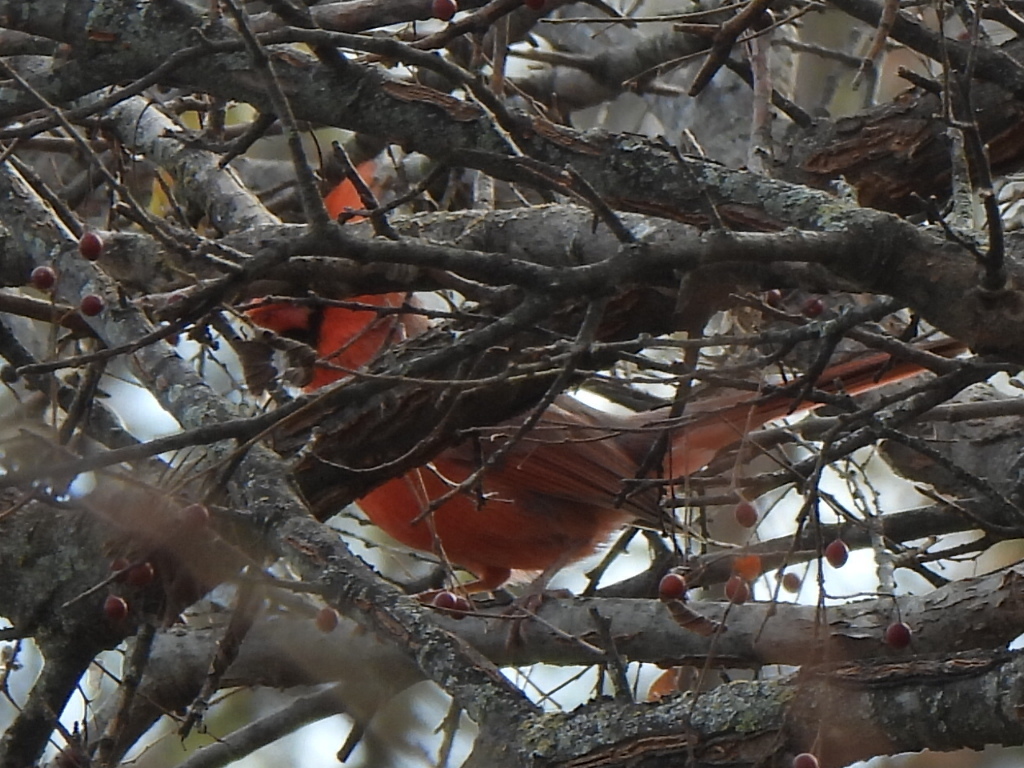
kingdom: Animalia
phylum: Chordata
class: Aves
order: Passeriformes
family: Cardinalidae
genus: Cardinalis
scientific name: Cardinalis cardinalis
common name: Northern cardinal
